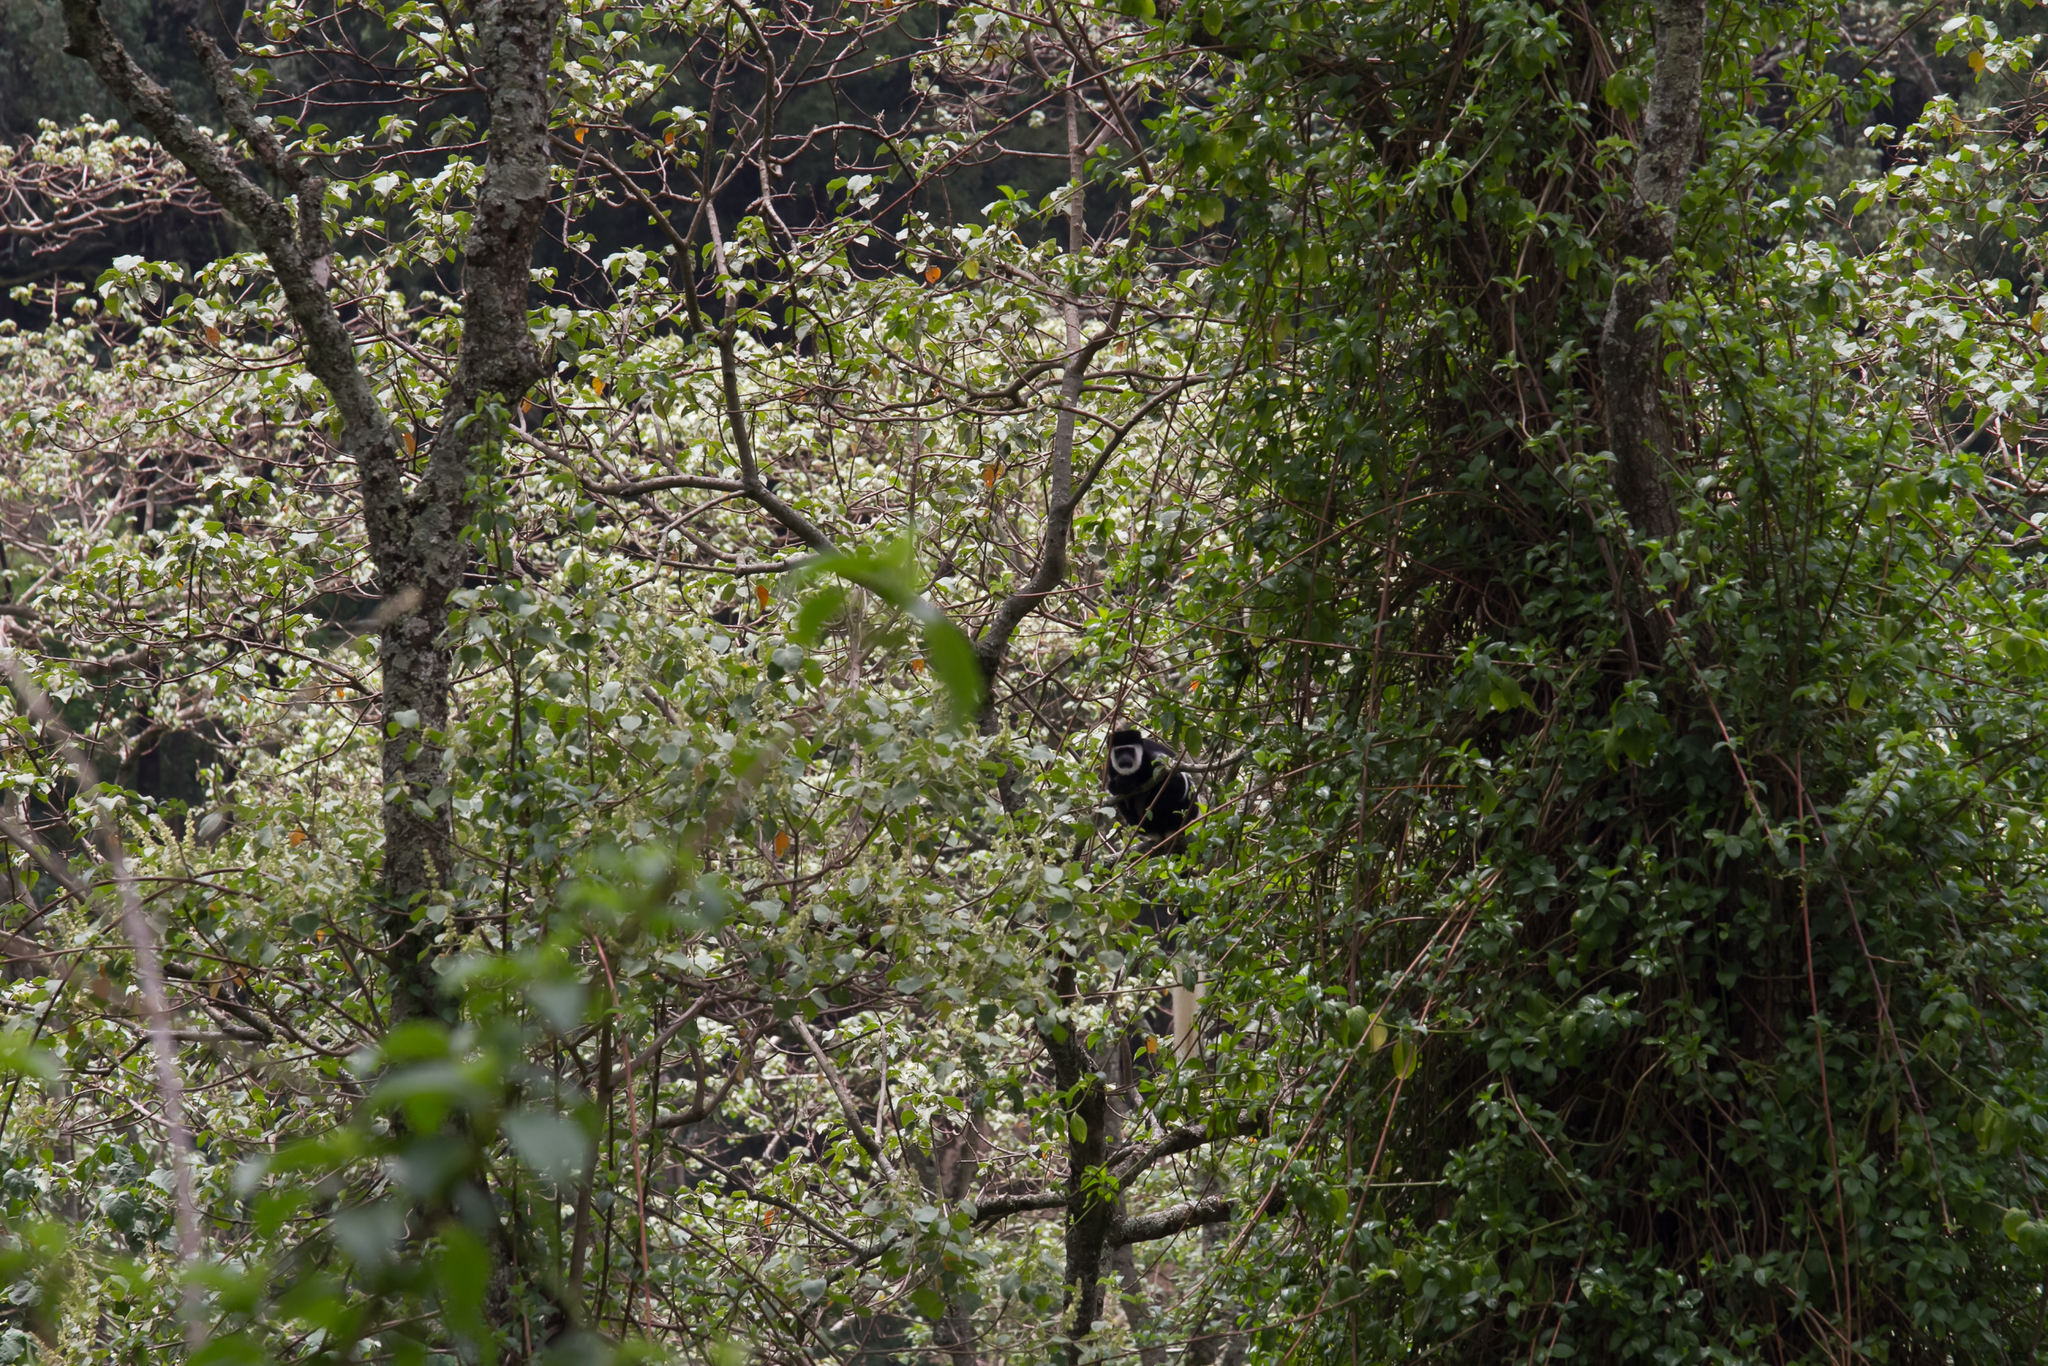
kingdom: Animalia
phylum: Chordata
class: Mammalia
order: Primates
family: Cercopithecidae
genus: Colobus
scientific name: Colobus guereza
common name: Mantled guereza
